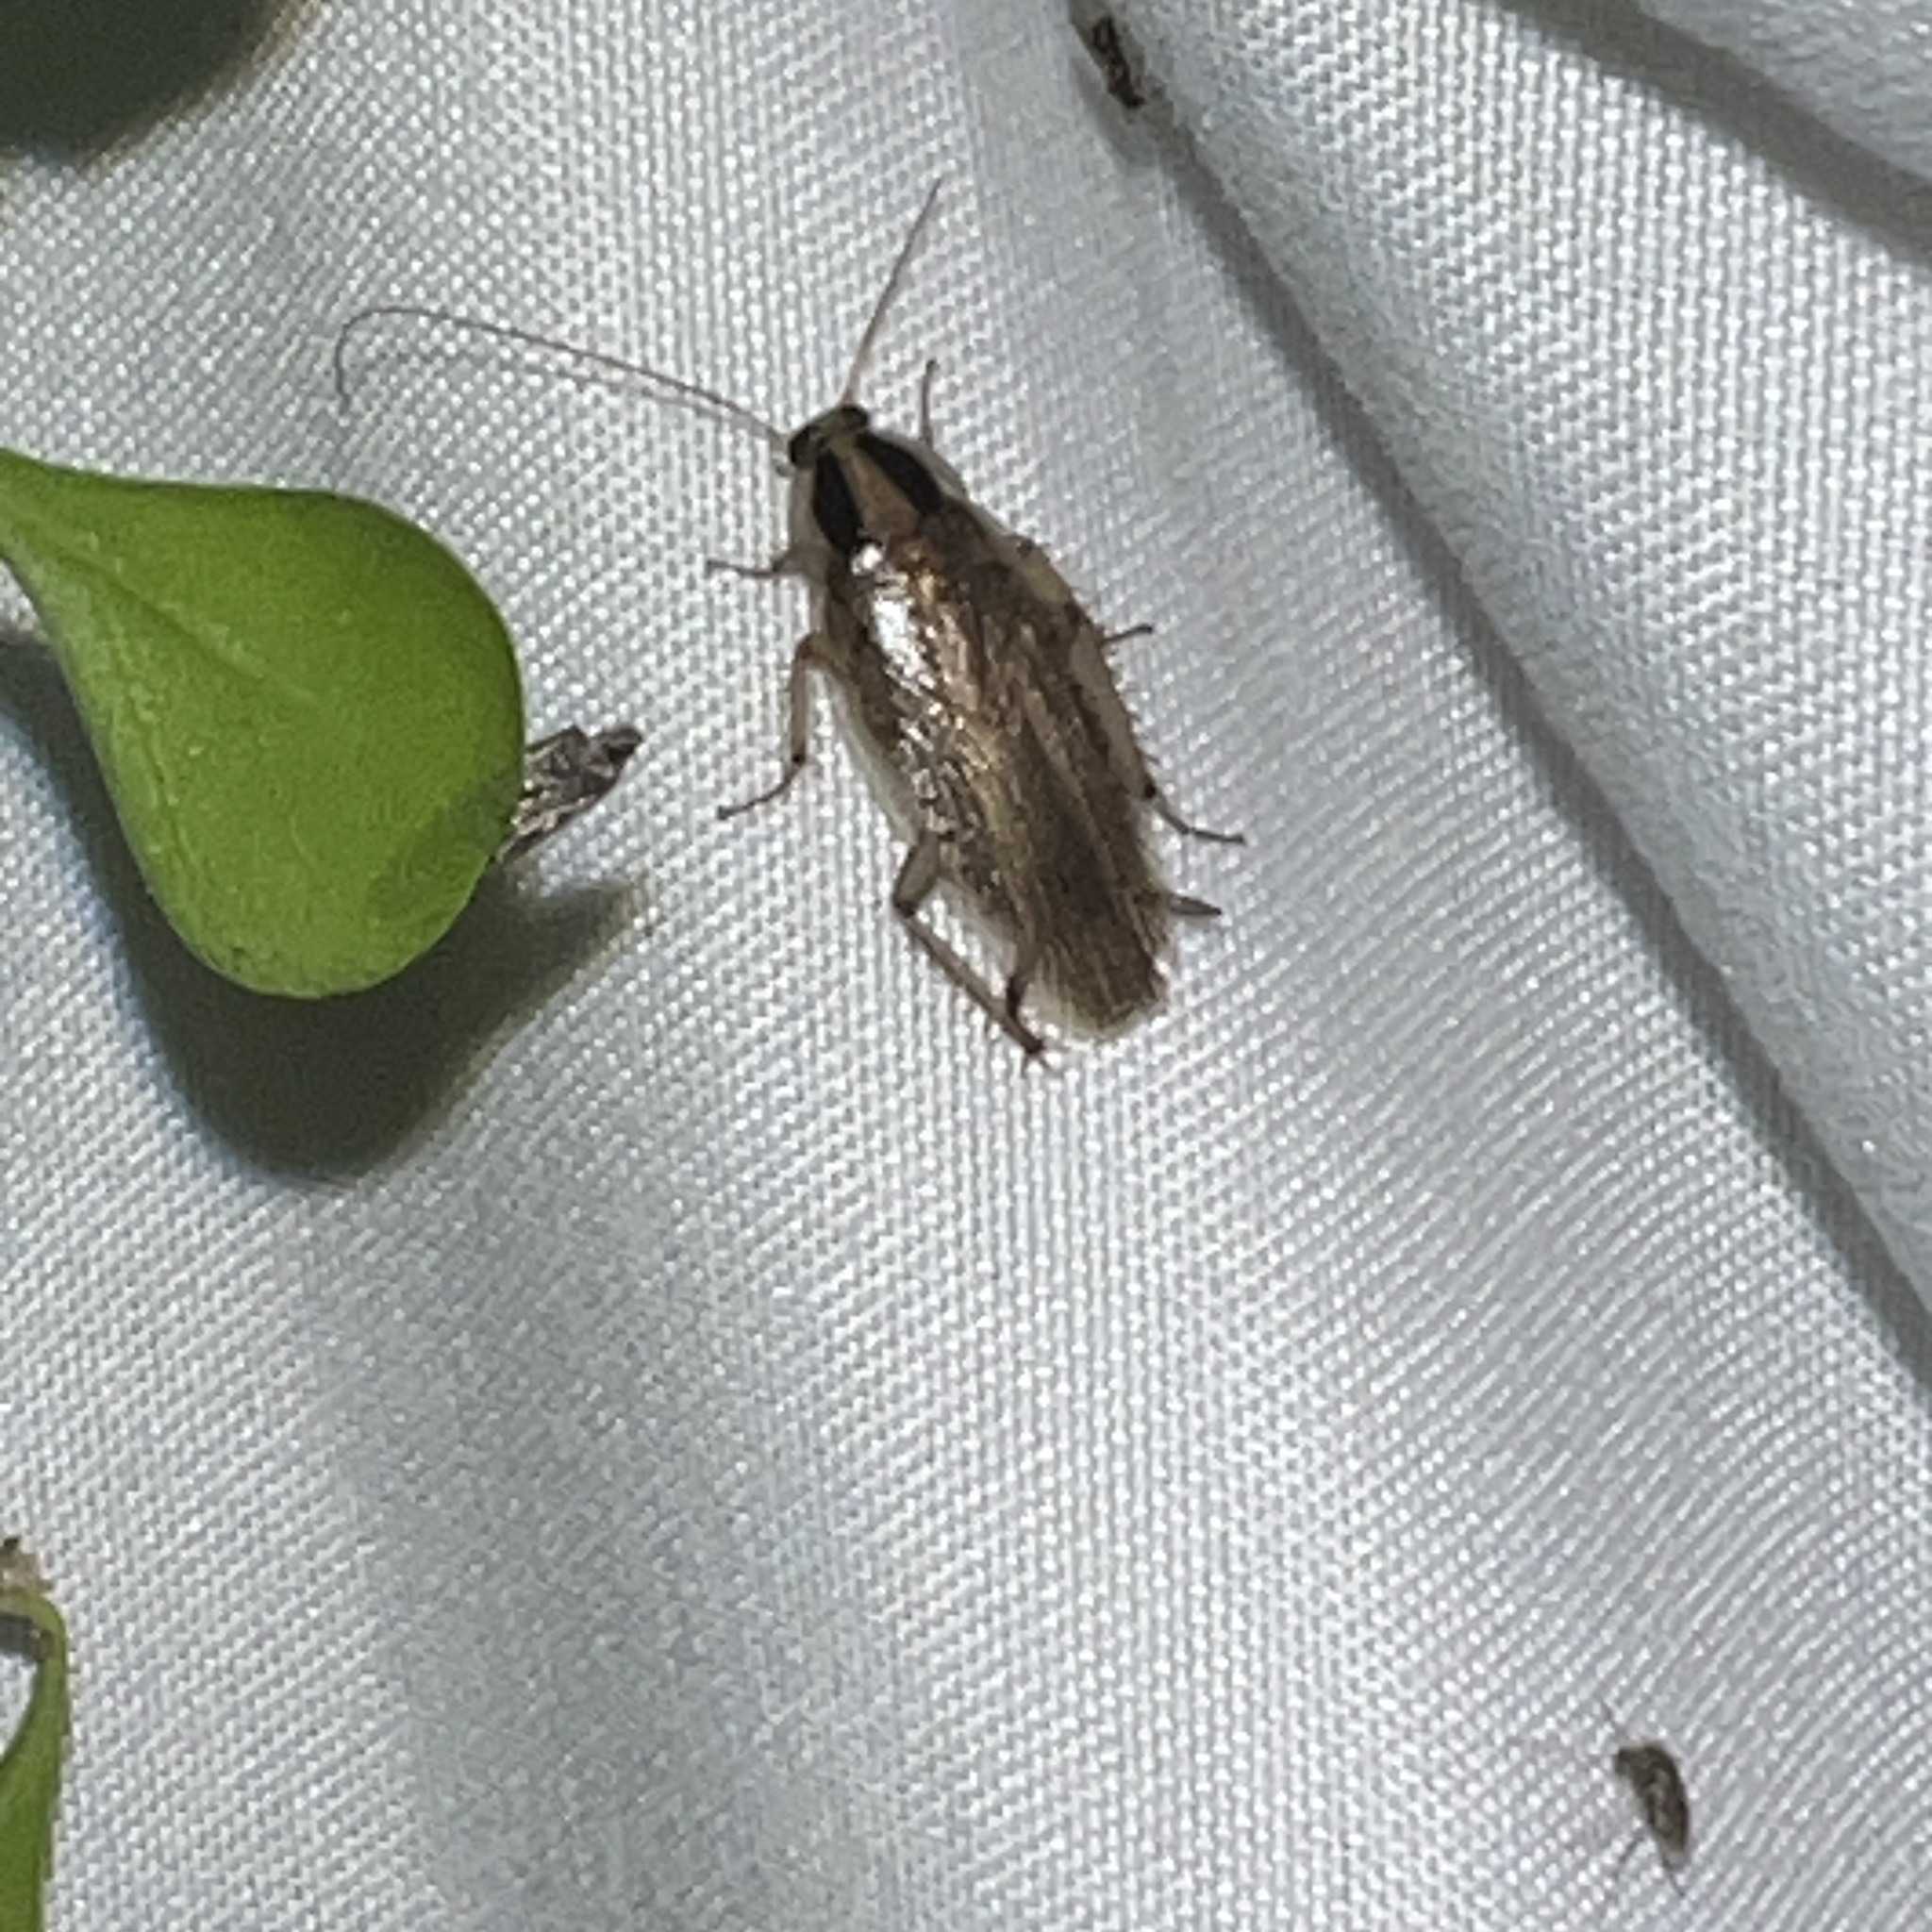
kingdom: Animalia
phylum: Arthropoda
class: Insecta
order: Blattodea
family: Ectobiidae
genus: Blattella
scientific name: Blattella vaga
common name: Field cockroach
